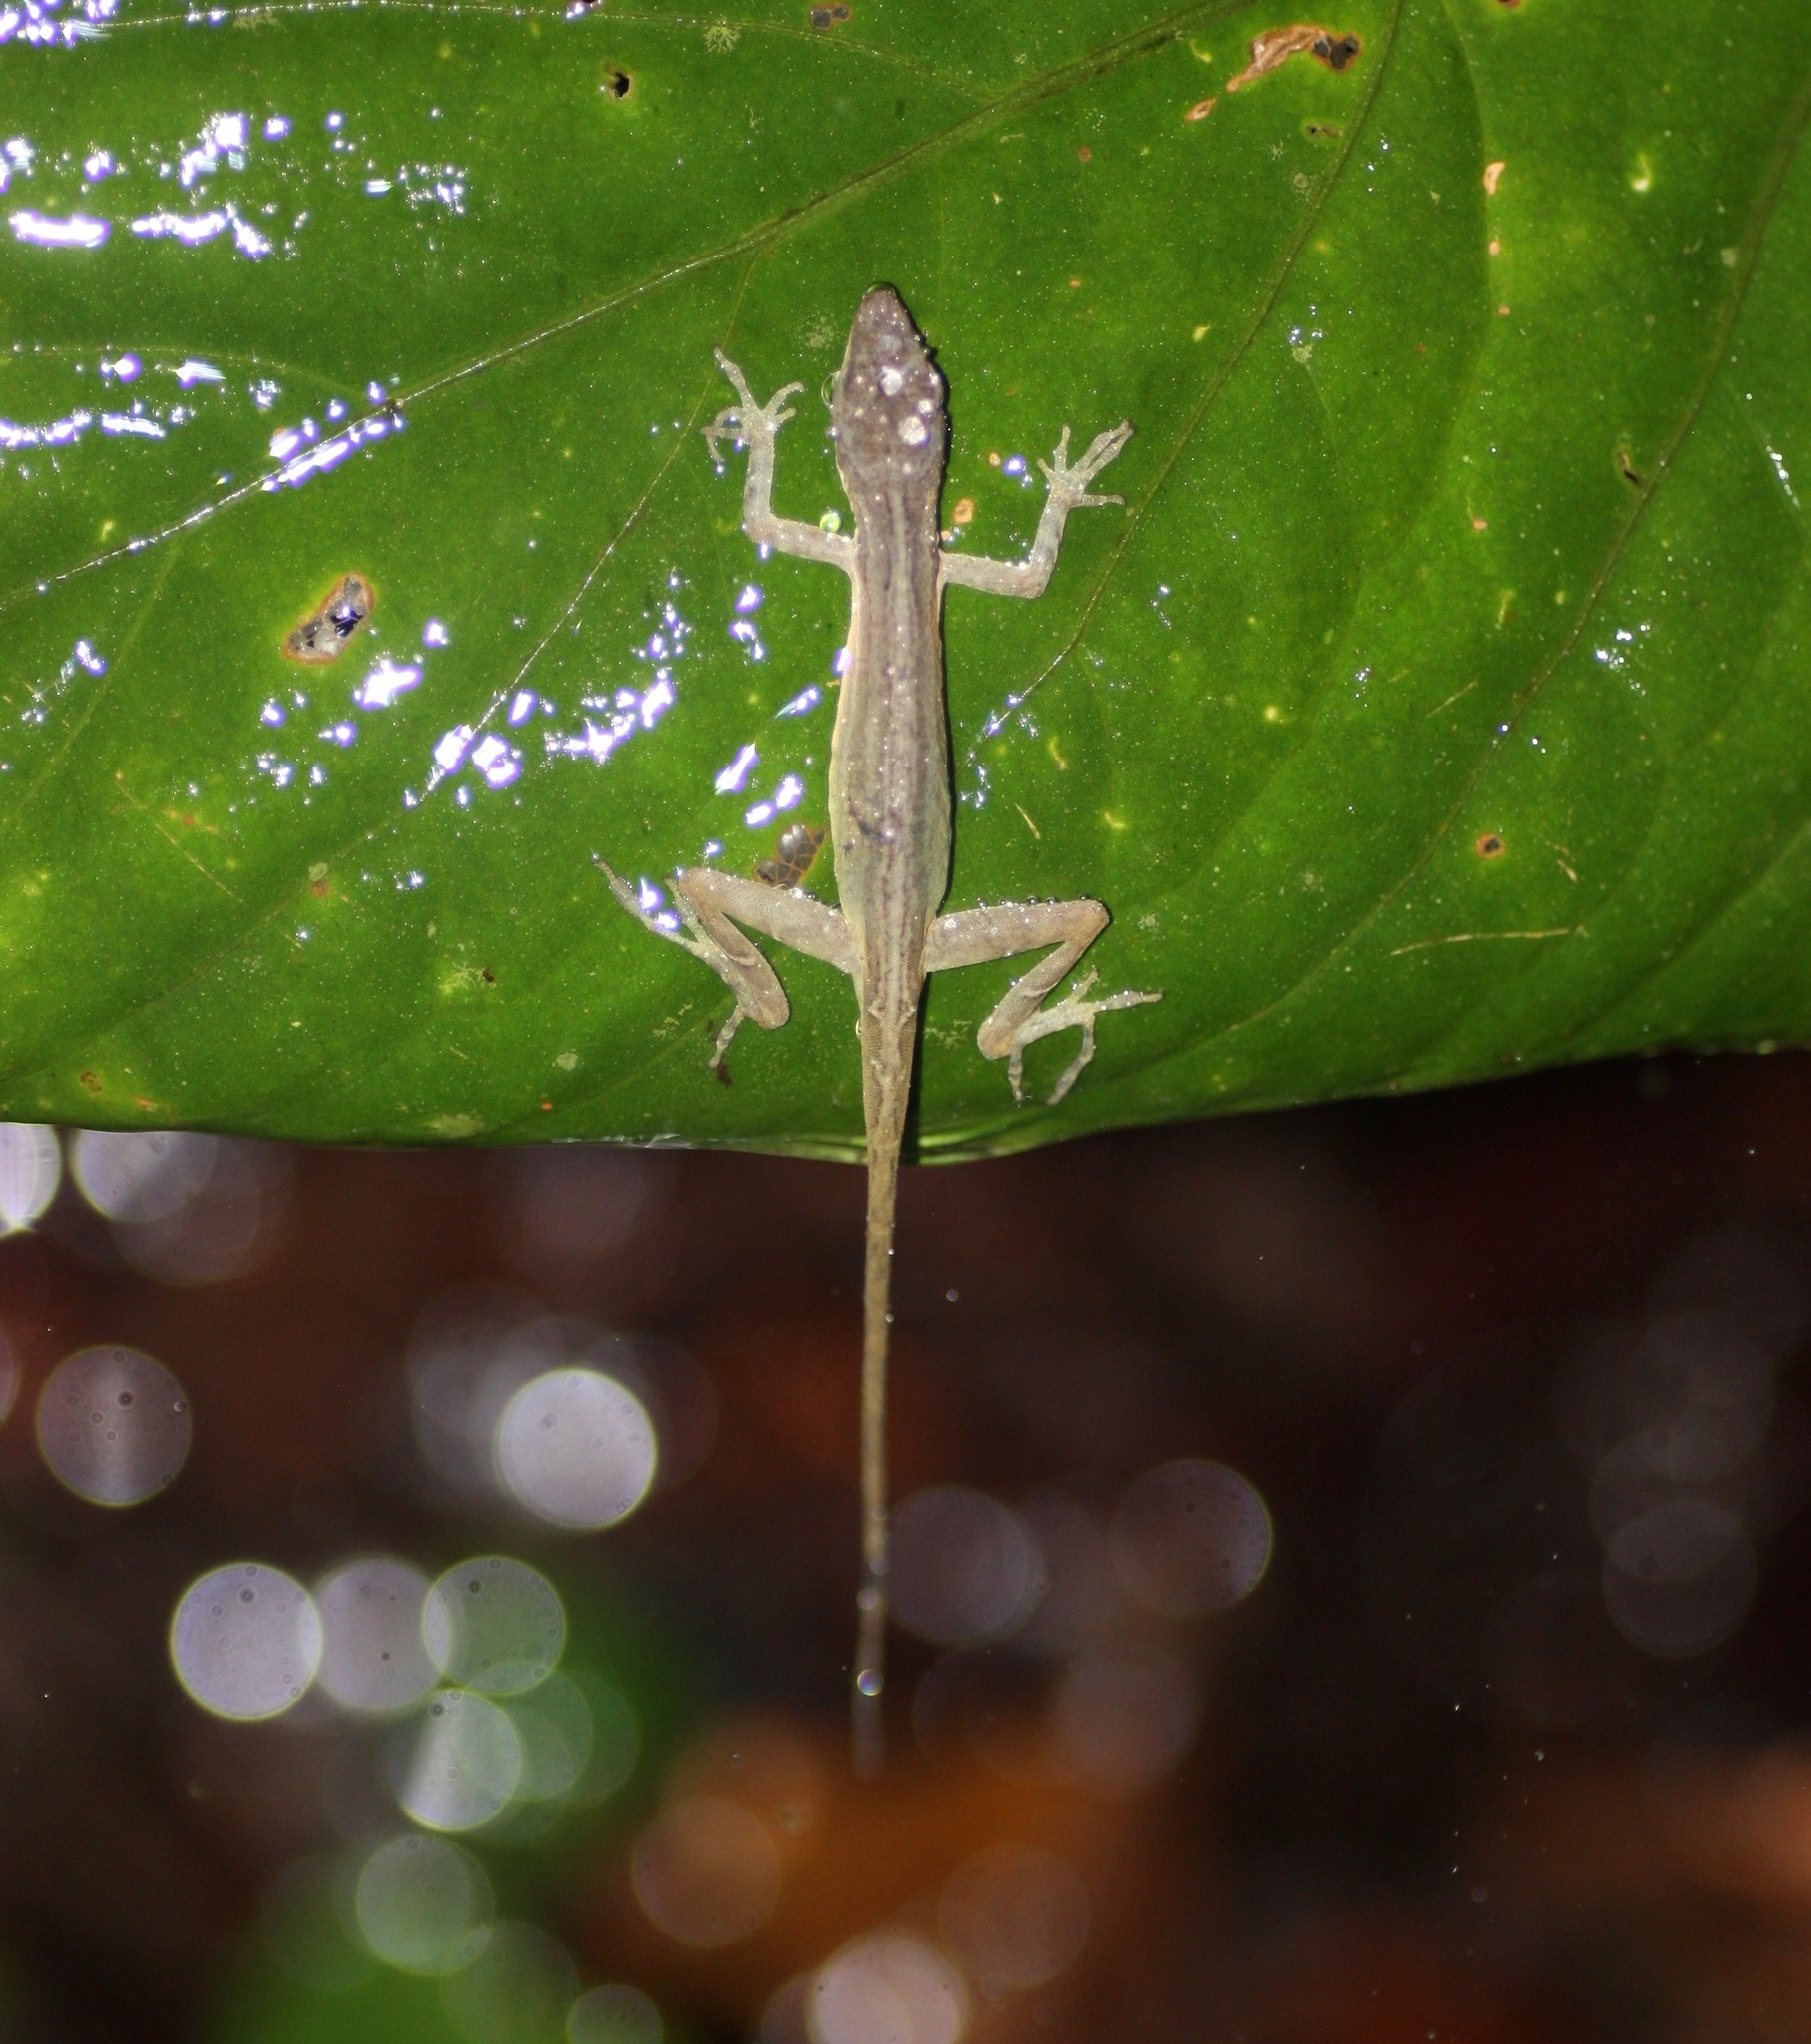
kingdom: Animalia
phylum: Chordata
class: Squamata
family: Dactyloidae
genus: Anolis
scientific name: Anolis limifrons
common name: Border anole
